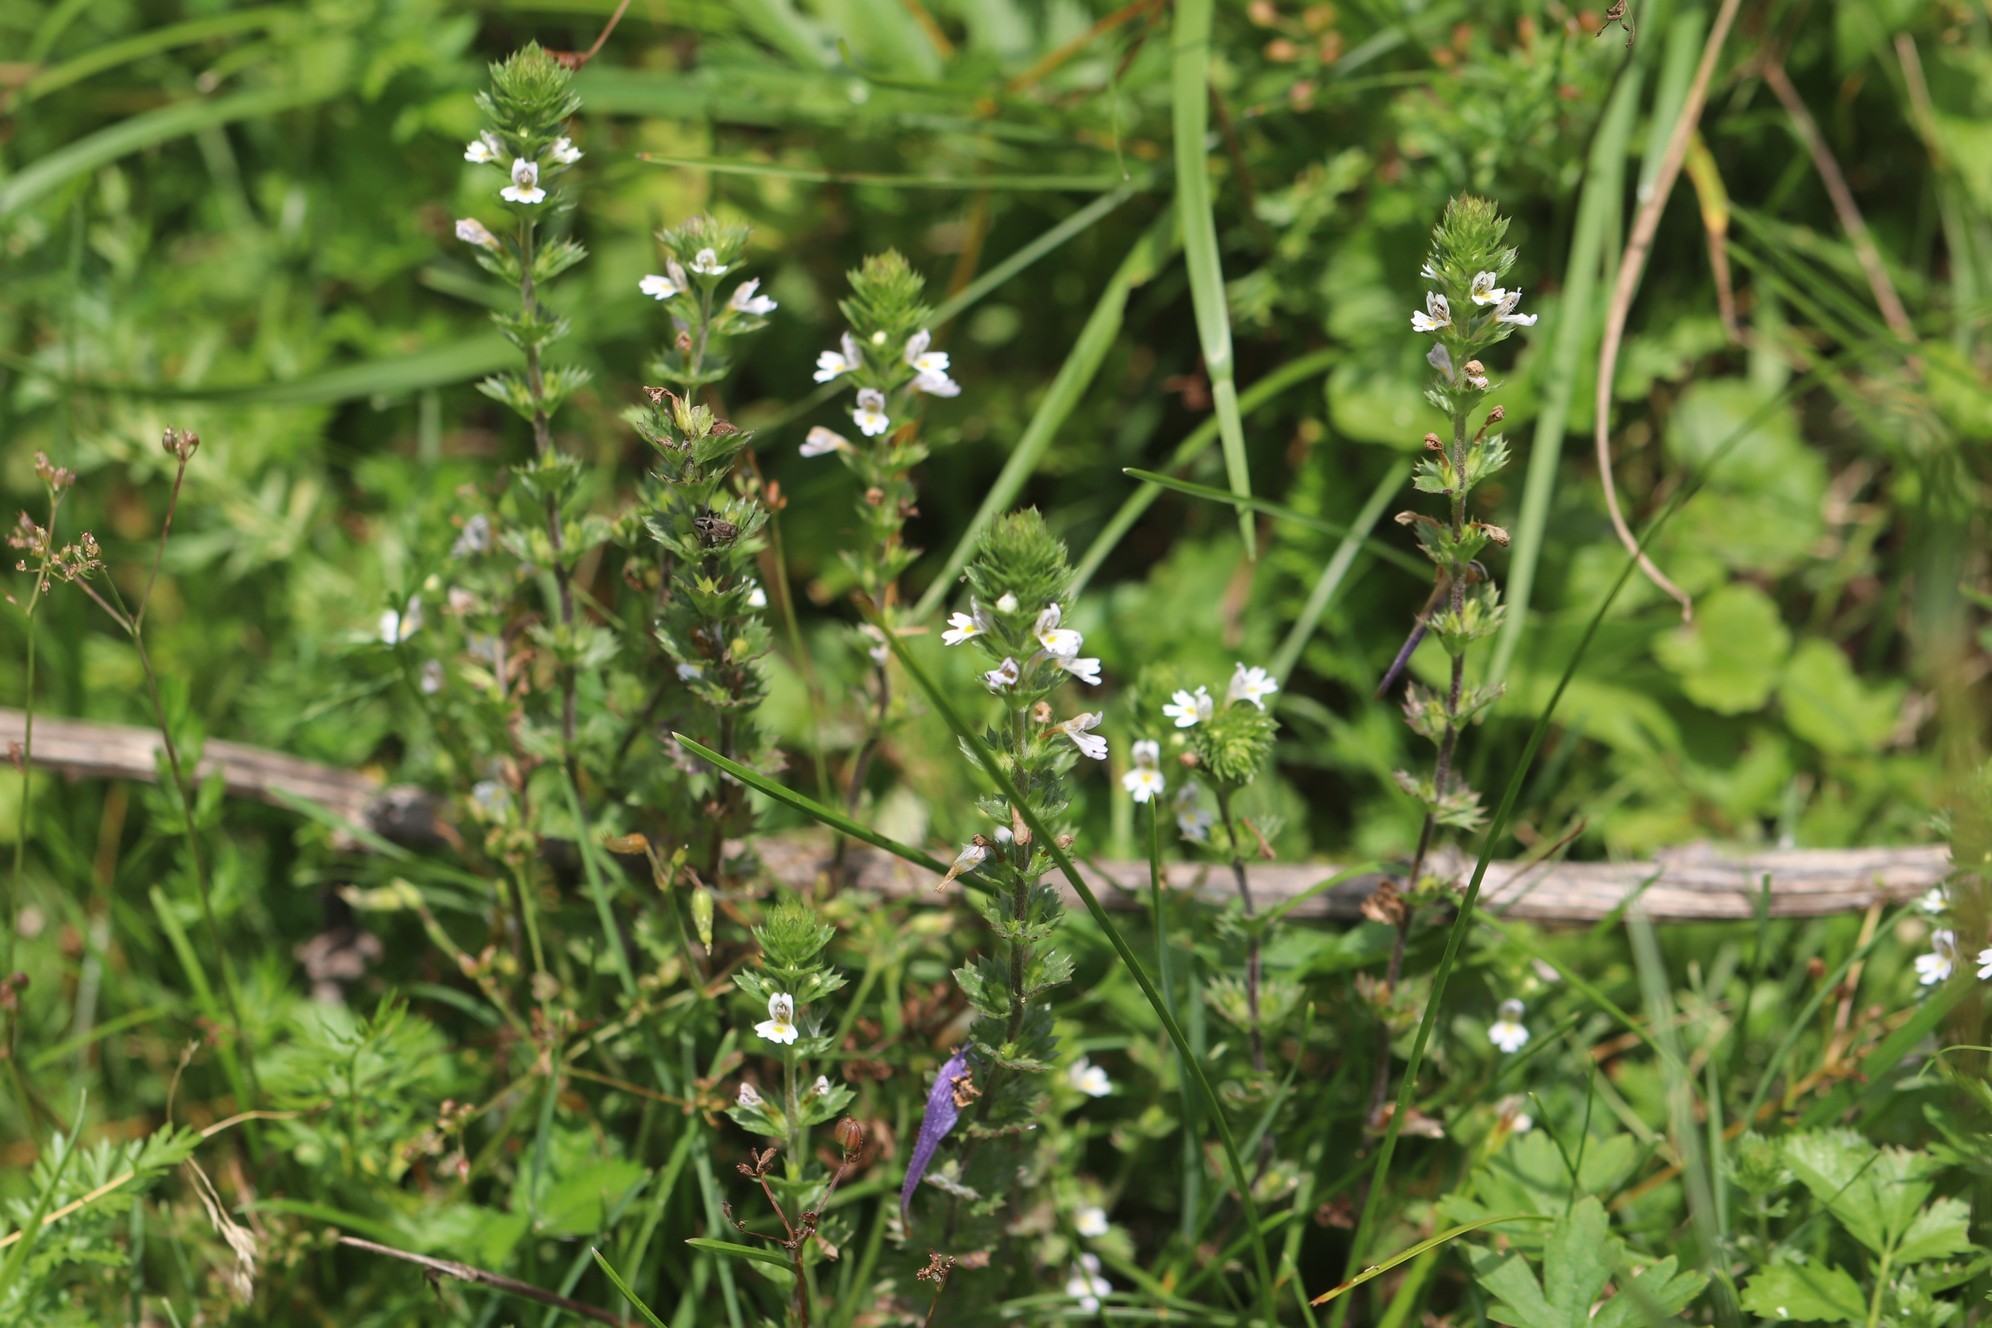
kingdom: Plantae
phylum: Tracheophyta
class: Magnoliopsida
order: Lamiales
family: Orobanchaceae
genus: Euphrasia
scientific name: Euphrasia pectinata
